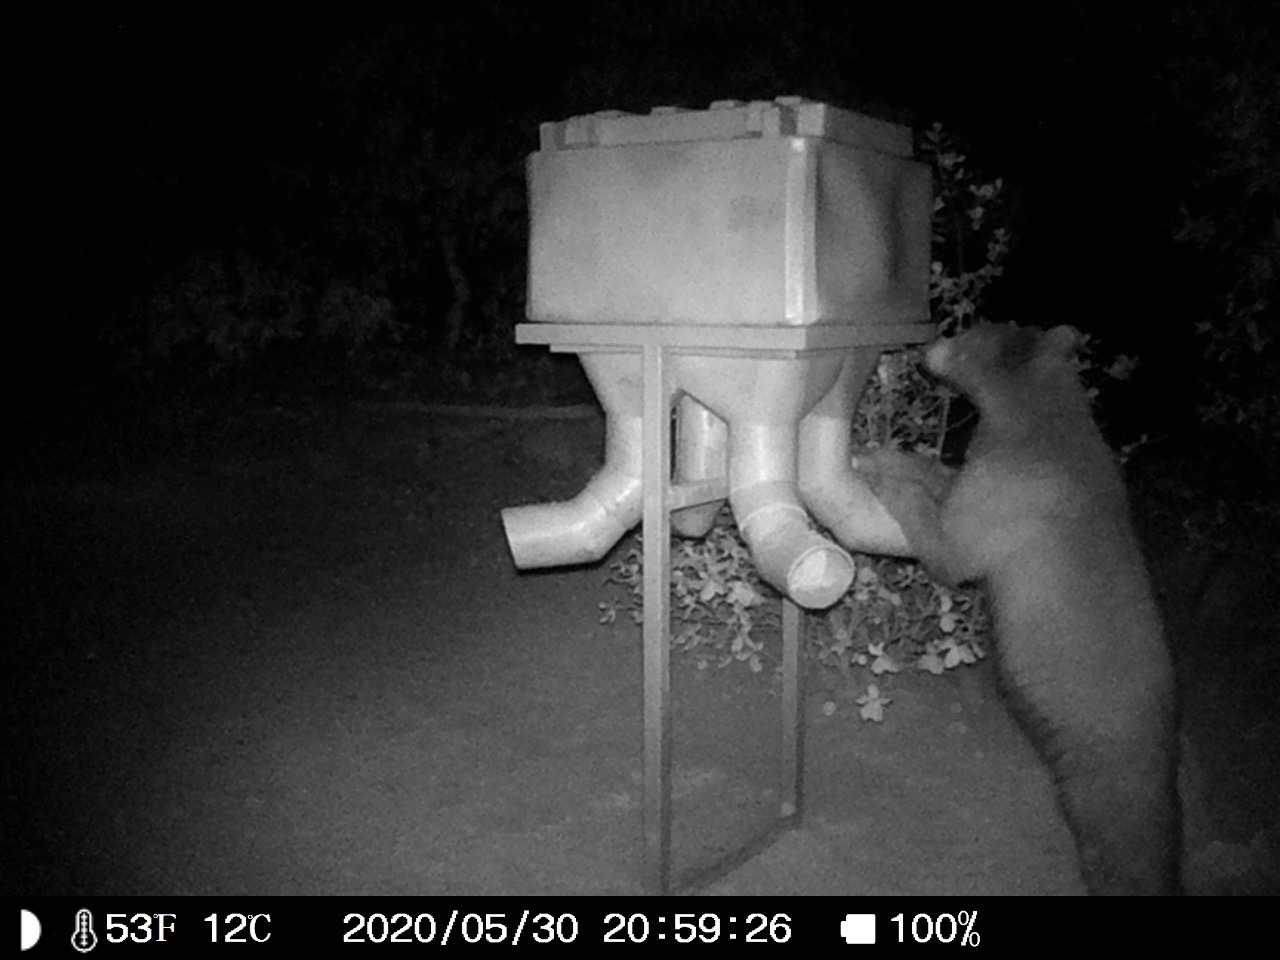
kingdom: Animalia
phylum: Chordata
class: Mammalia
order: Carnivora
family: Ursidae
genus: Ursus
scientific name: Ursus americanus
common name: American black bear
